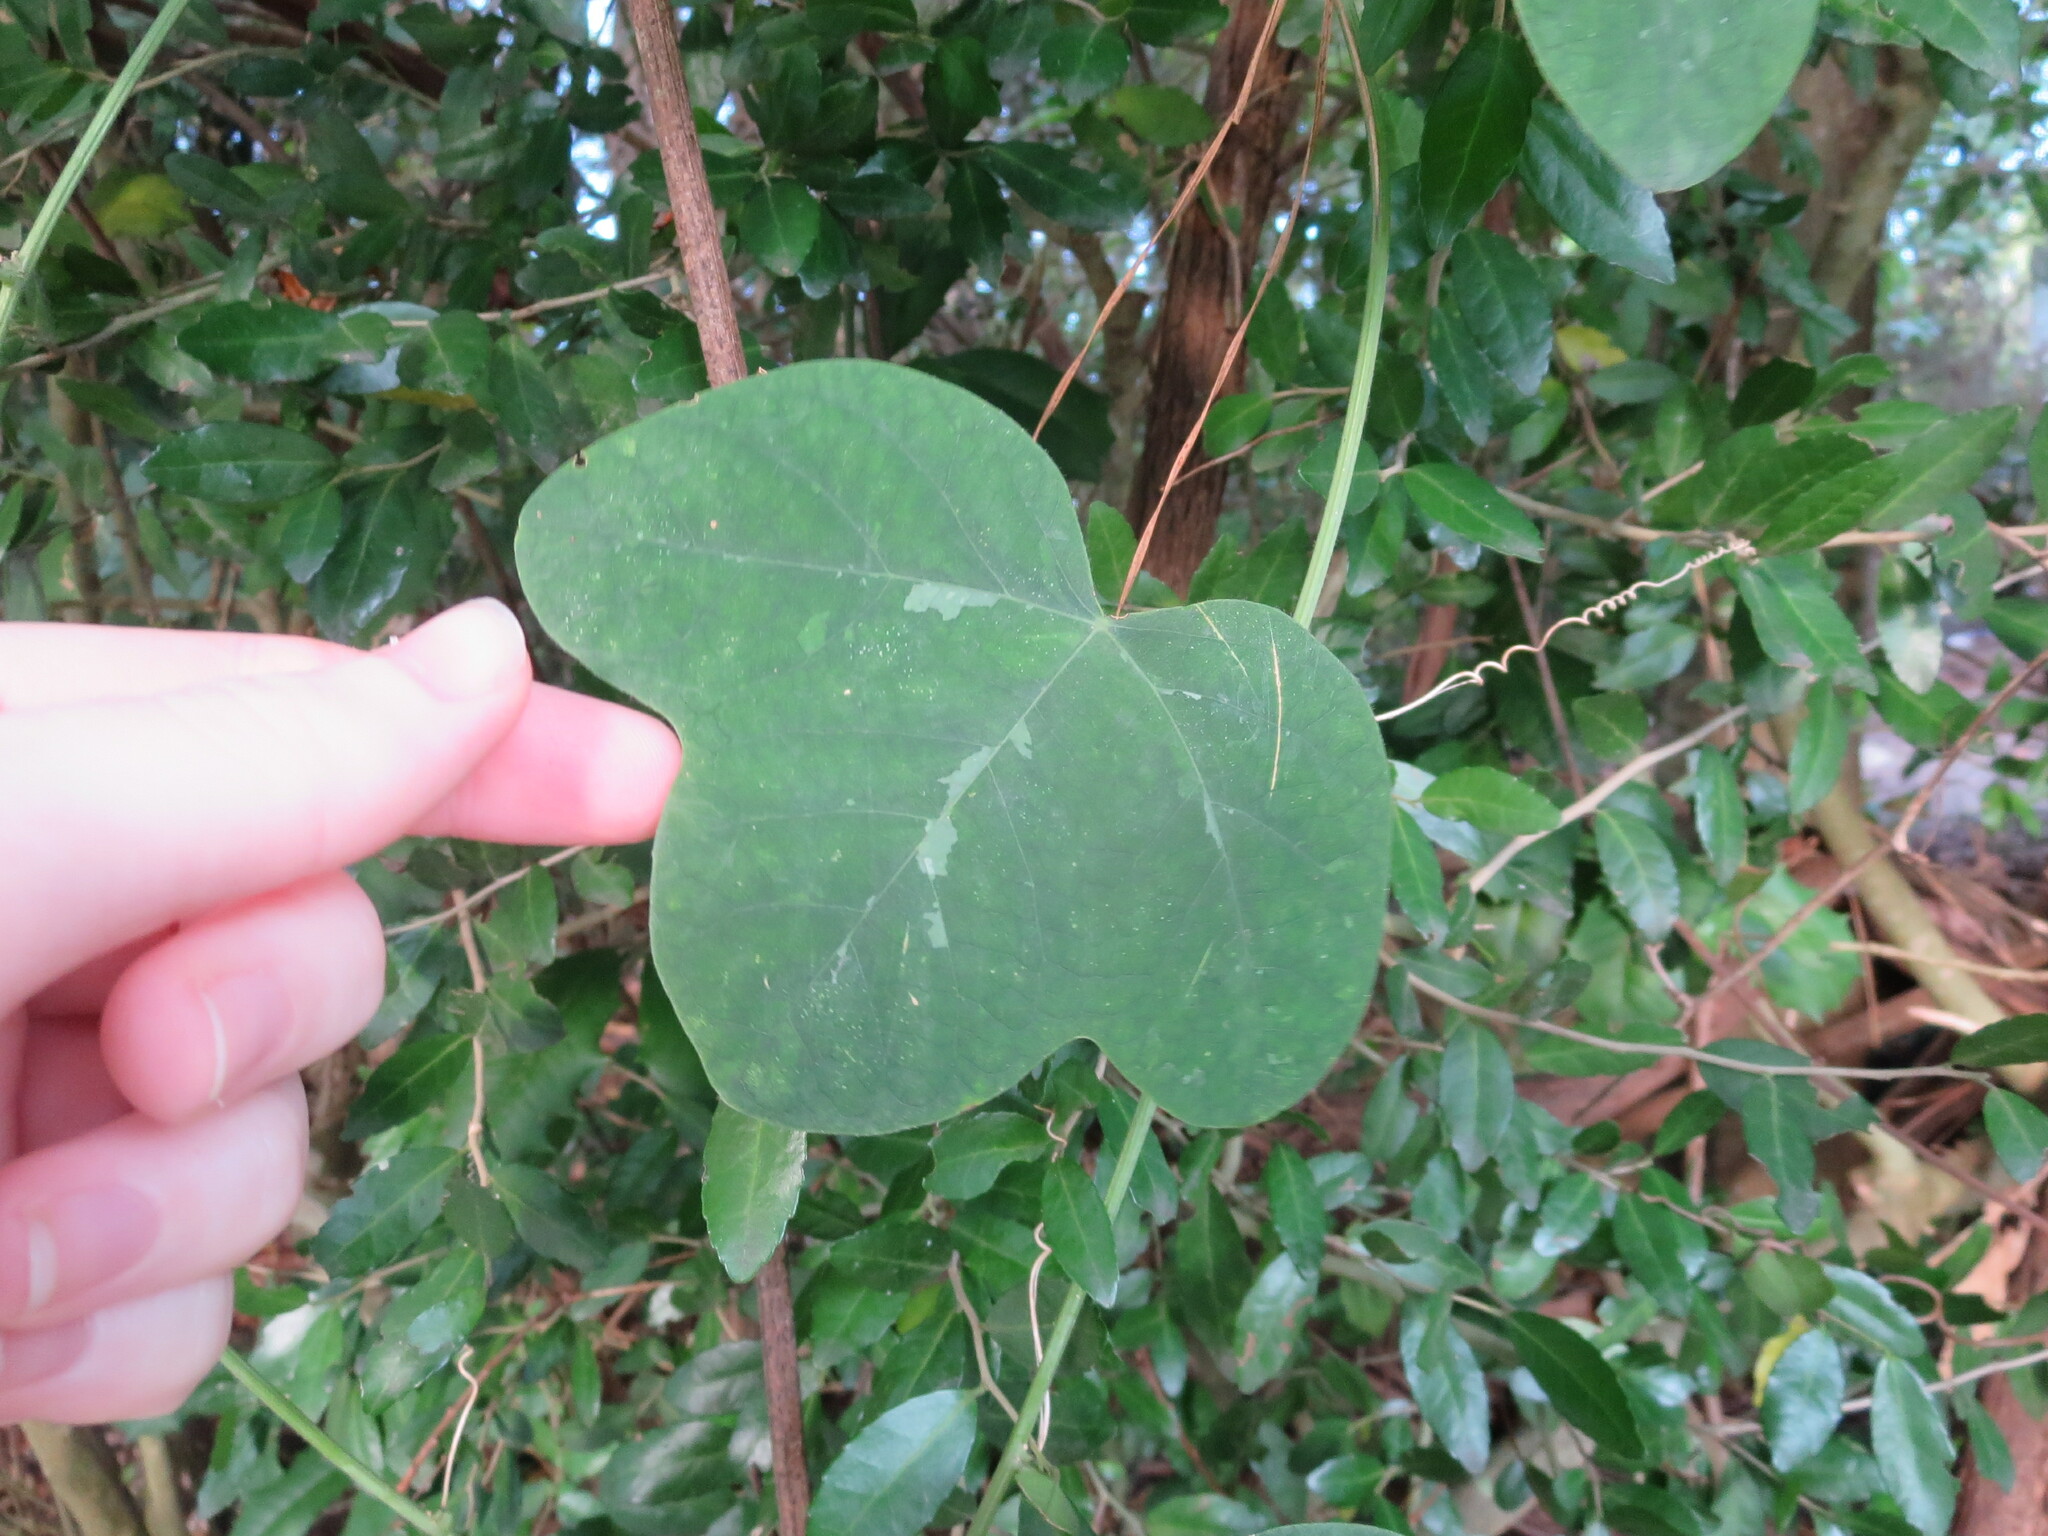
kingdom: Plantae
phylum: Tracheophyta
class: Magnoliopsida
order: Malpighiales
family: Passifloraceae
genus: Passiflora
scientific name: Passiflora lutea
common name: Yellow passionflower
